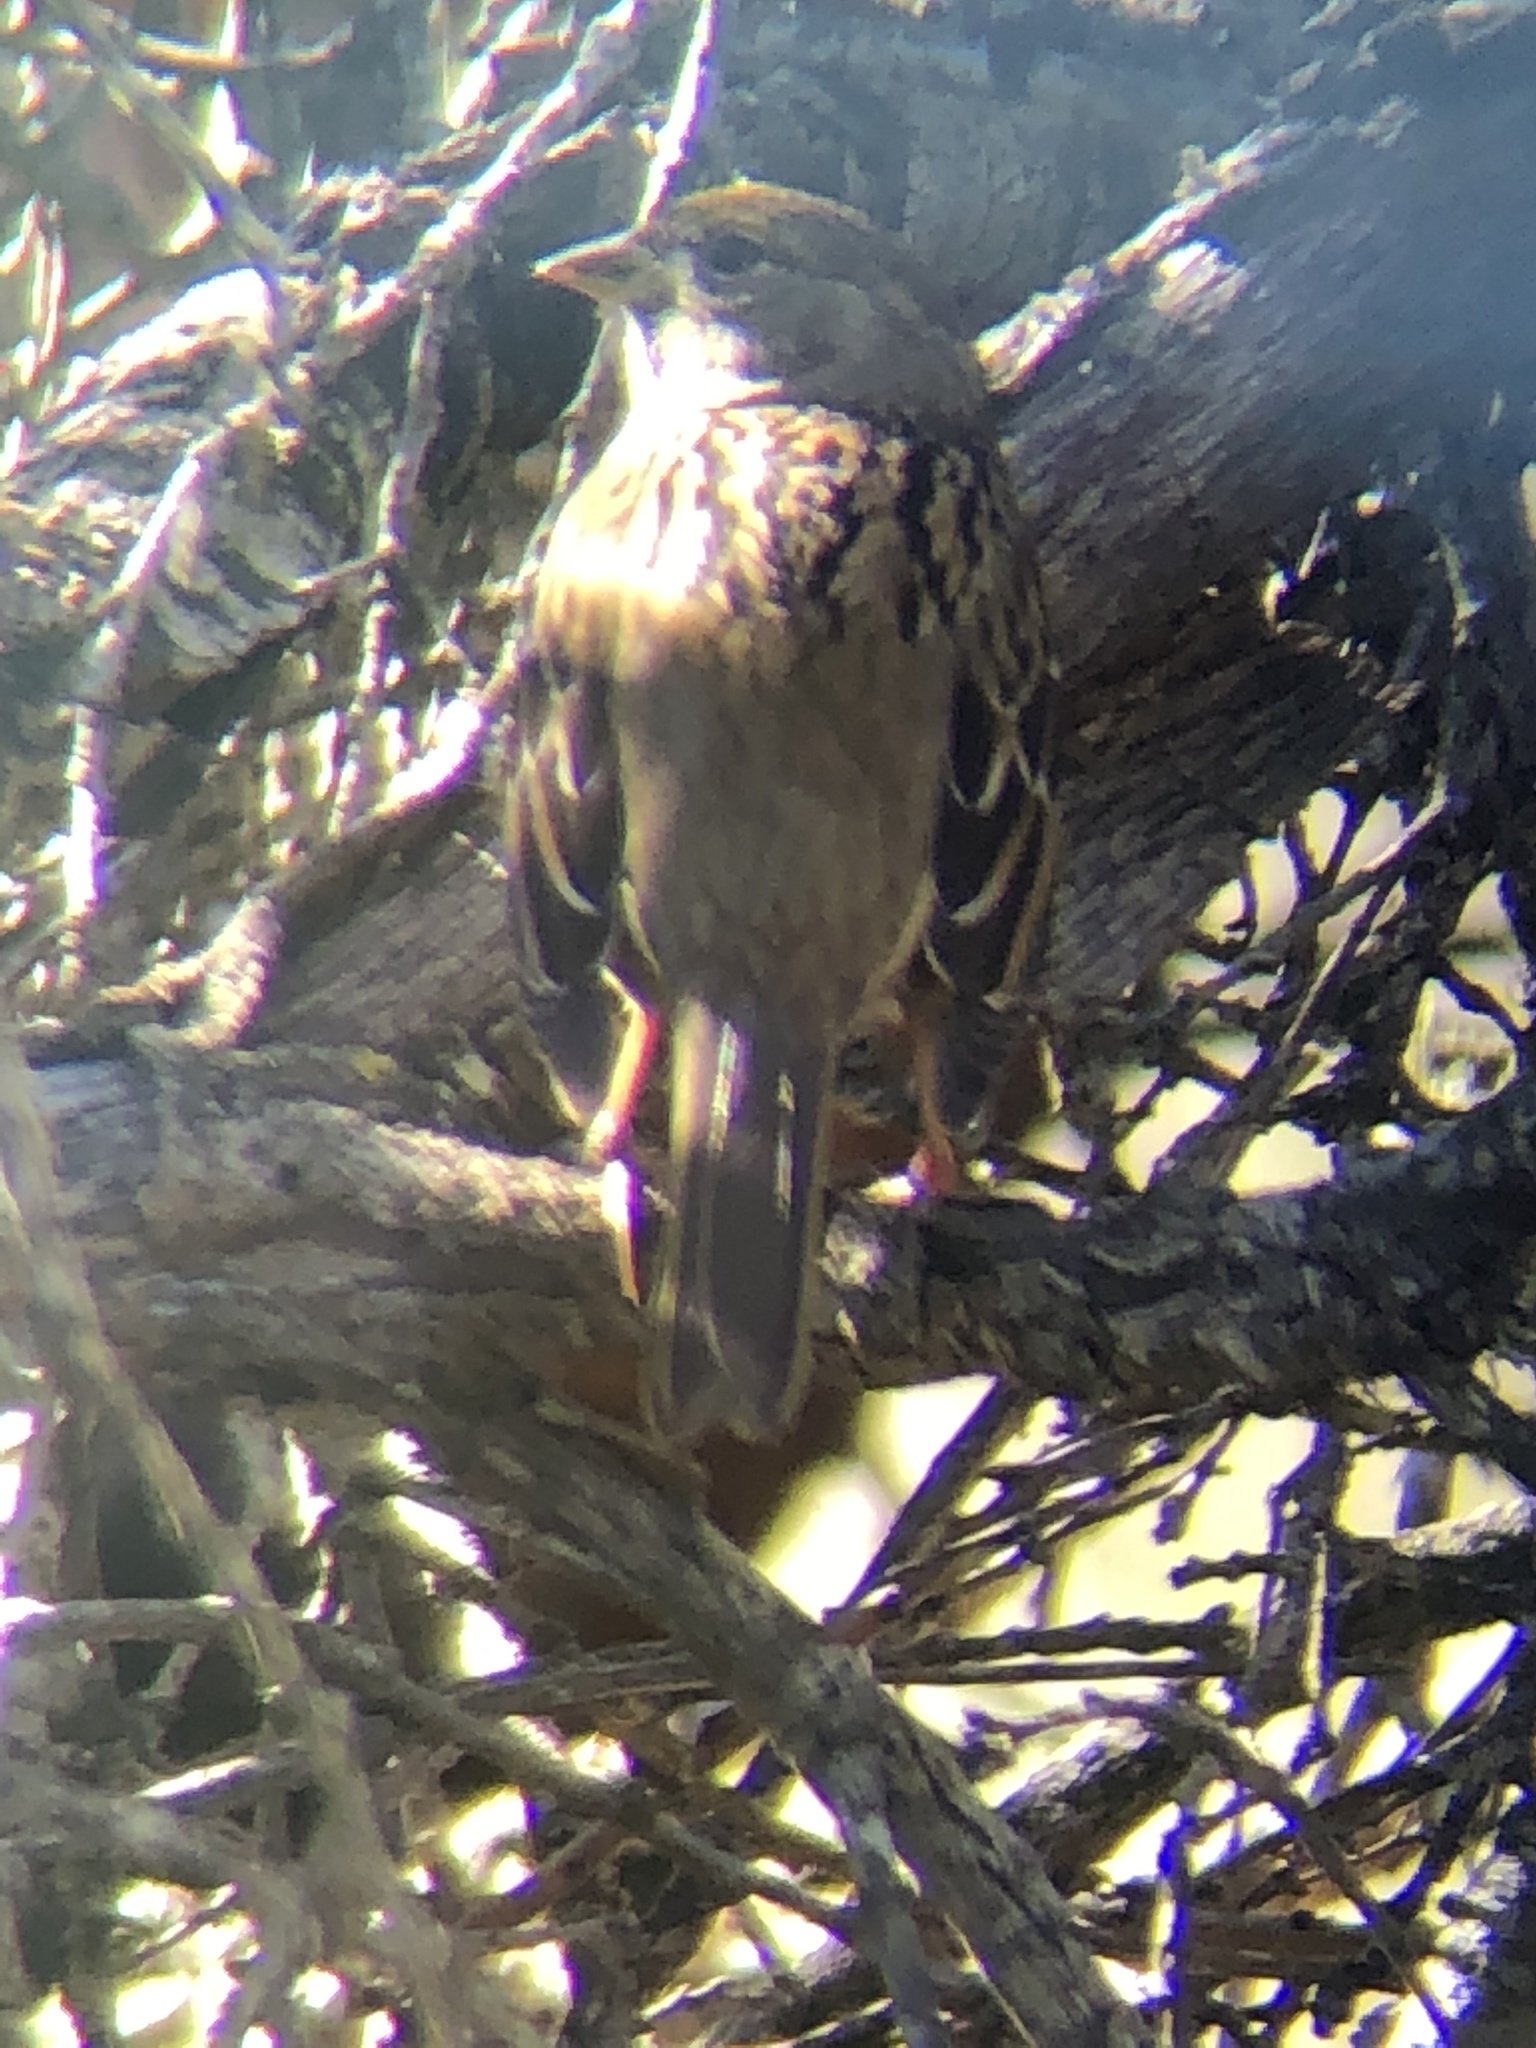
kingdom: Animalia
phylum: Chordata
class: Aves
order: Passeriformes
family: Passerellidae
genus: Zonotrichia
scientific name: Zonotrichia atricapilla
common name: Golden-crowned sparrow
